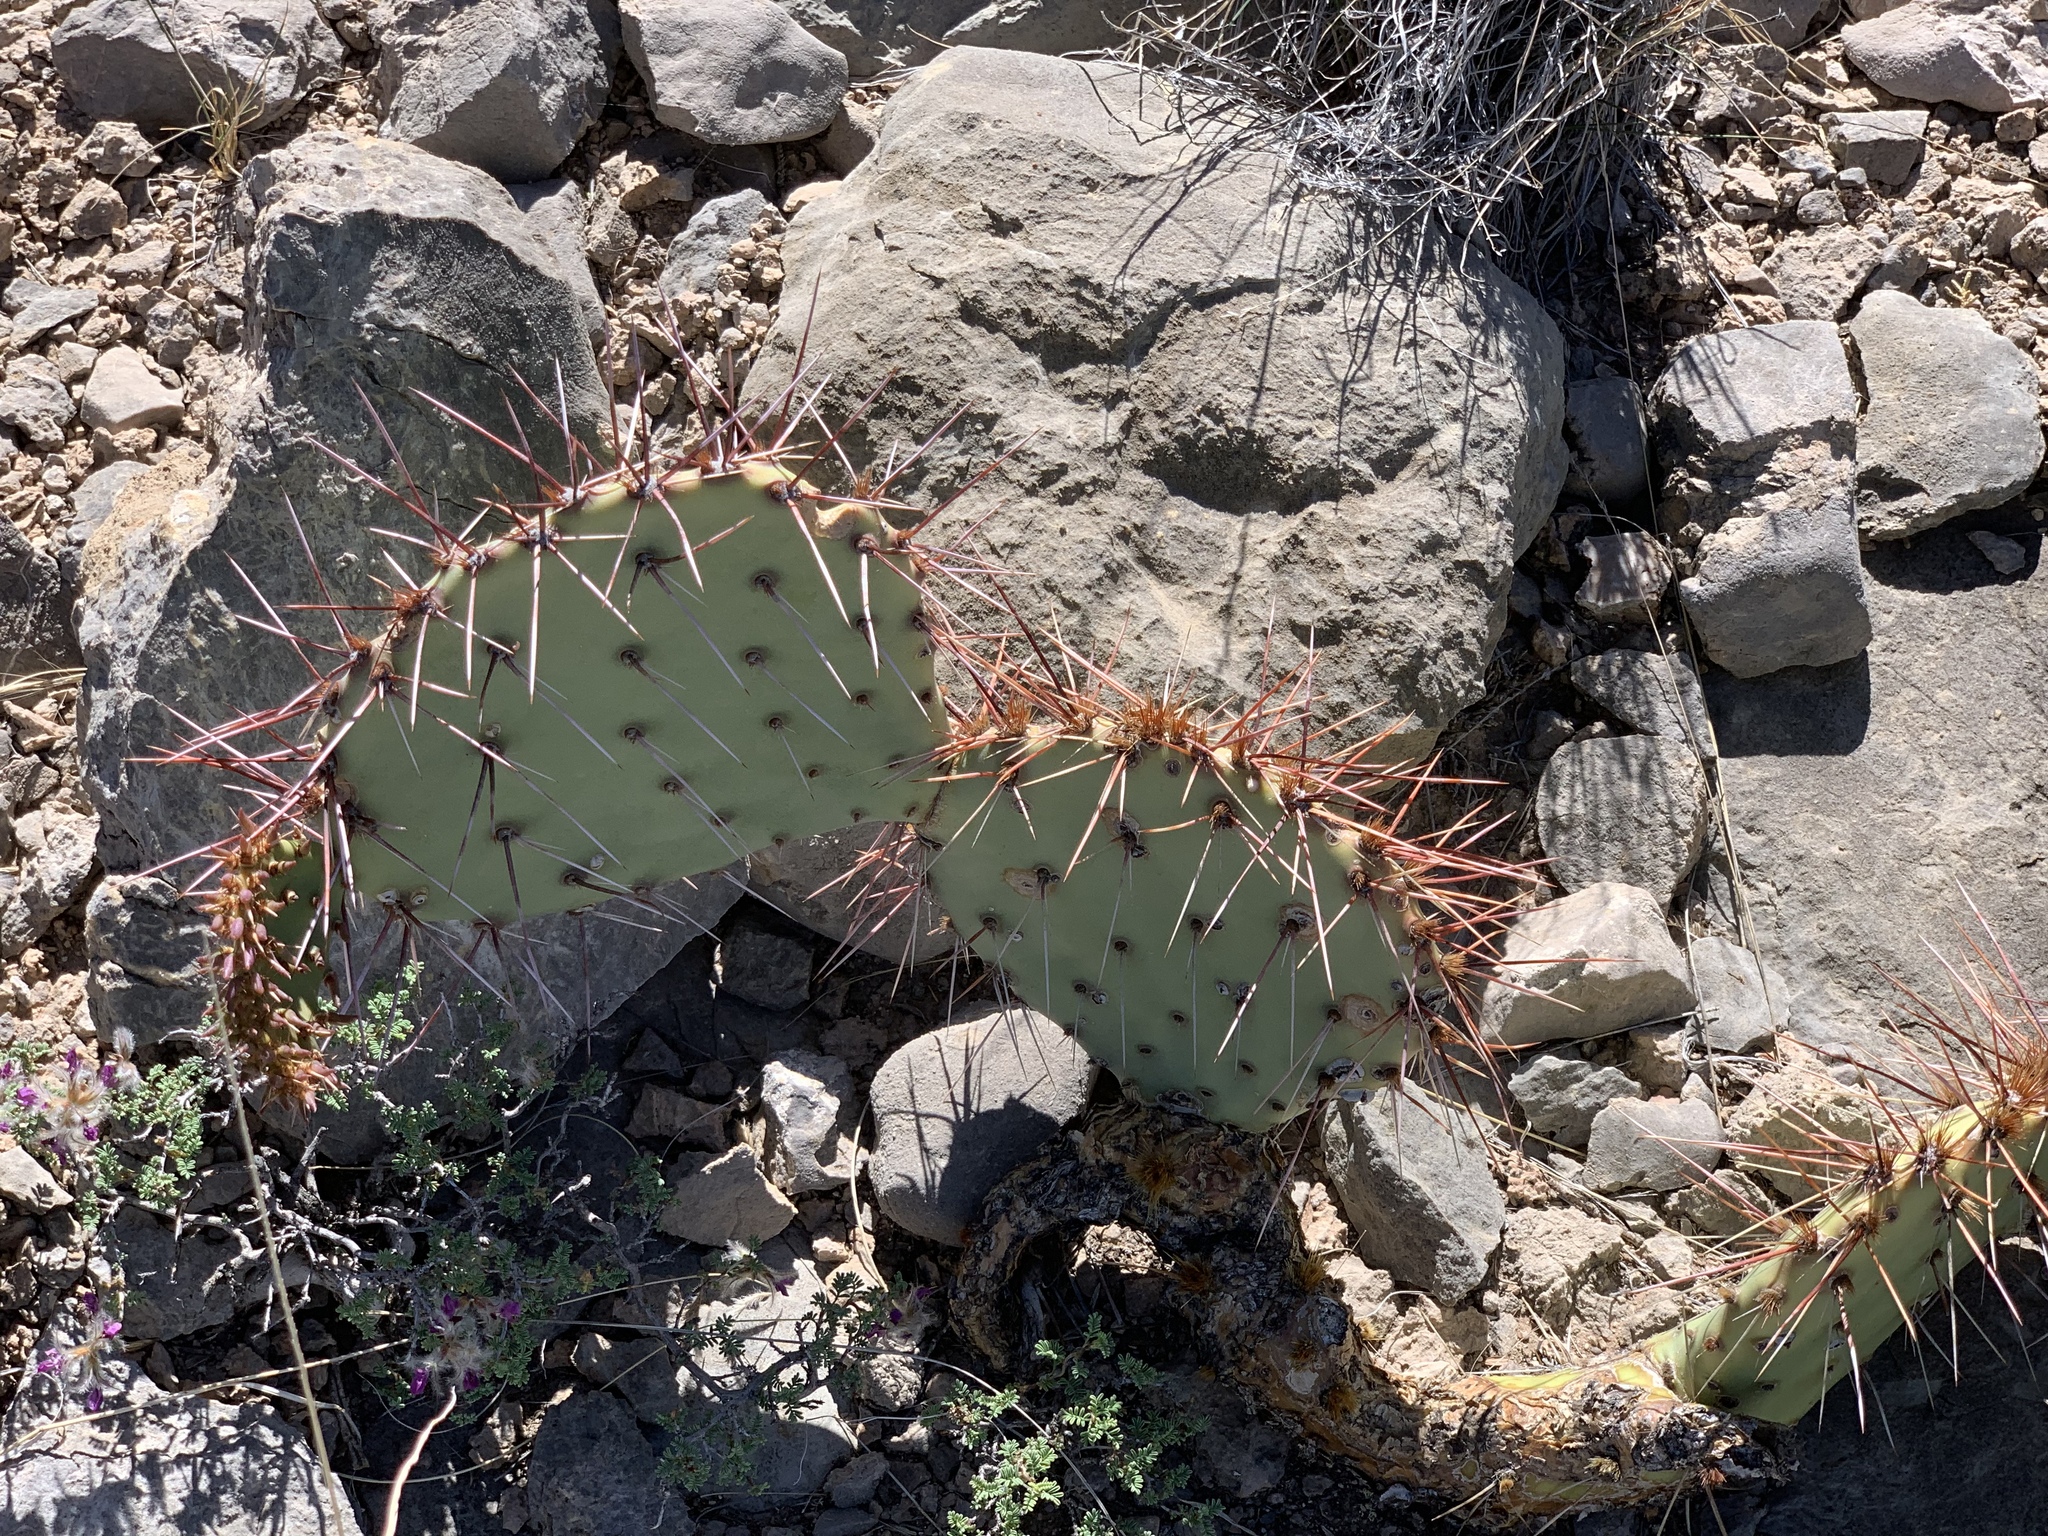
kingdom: Plantae
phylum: Tracheophyta
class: Magnoliopsida
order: Caryophyllales
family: Cactaceae
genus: Opuntia
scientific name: Opuntia phaeacantha
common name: New mexico prickly-pear
